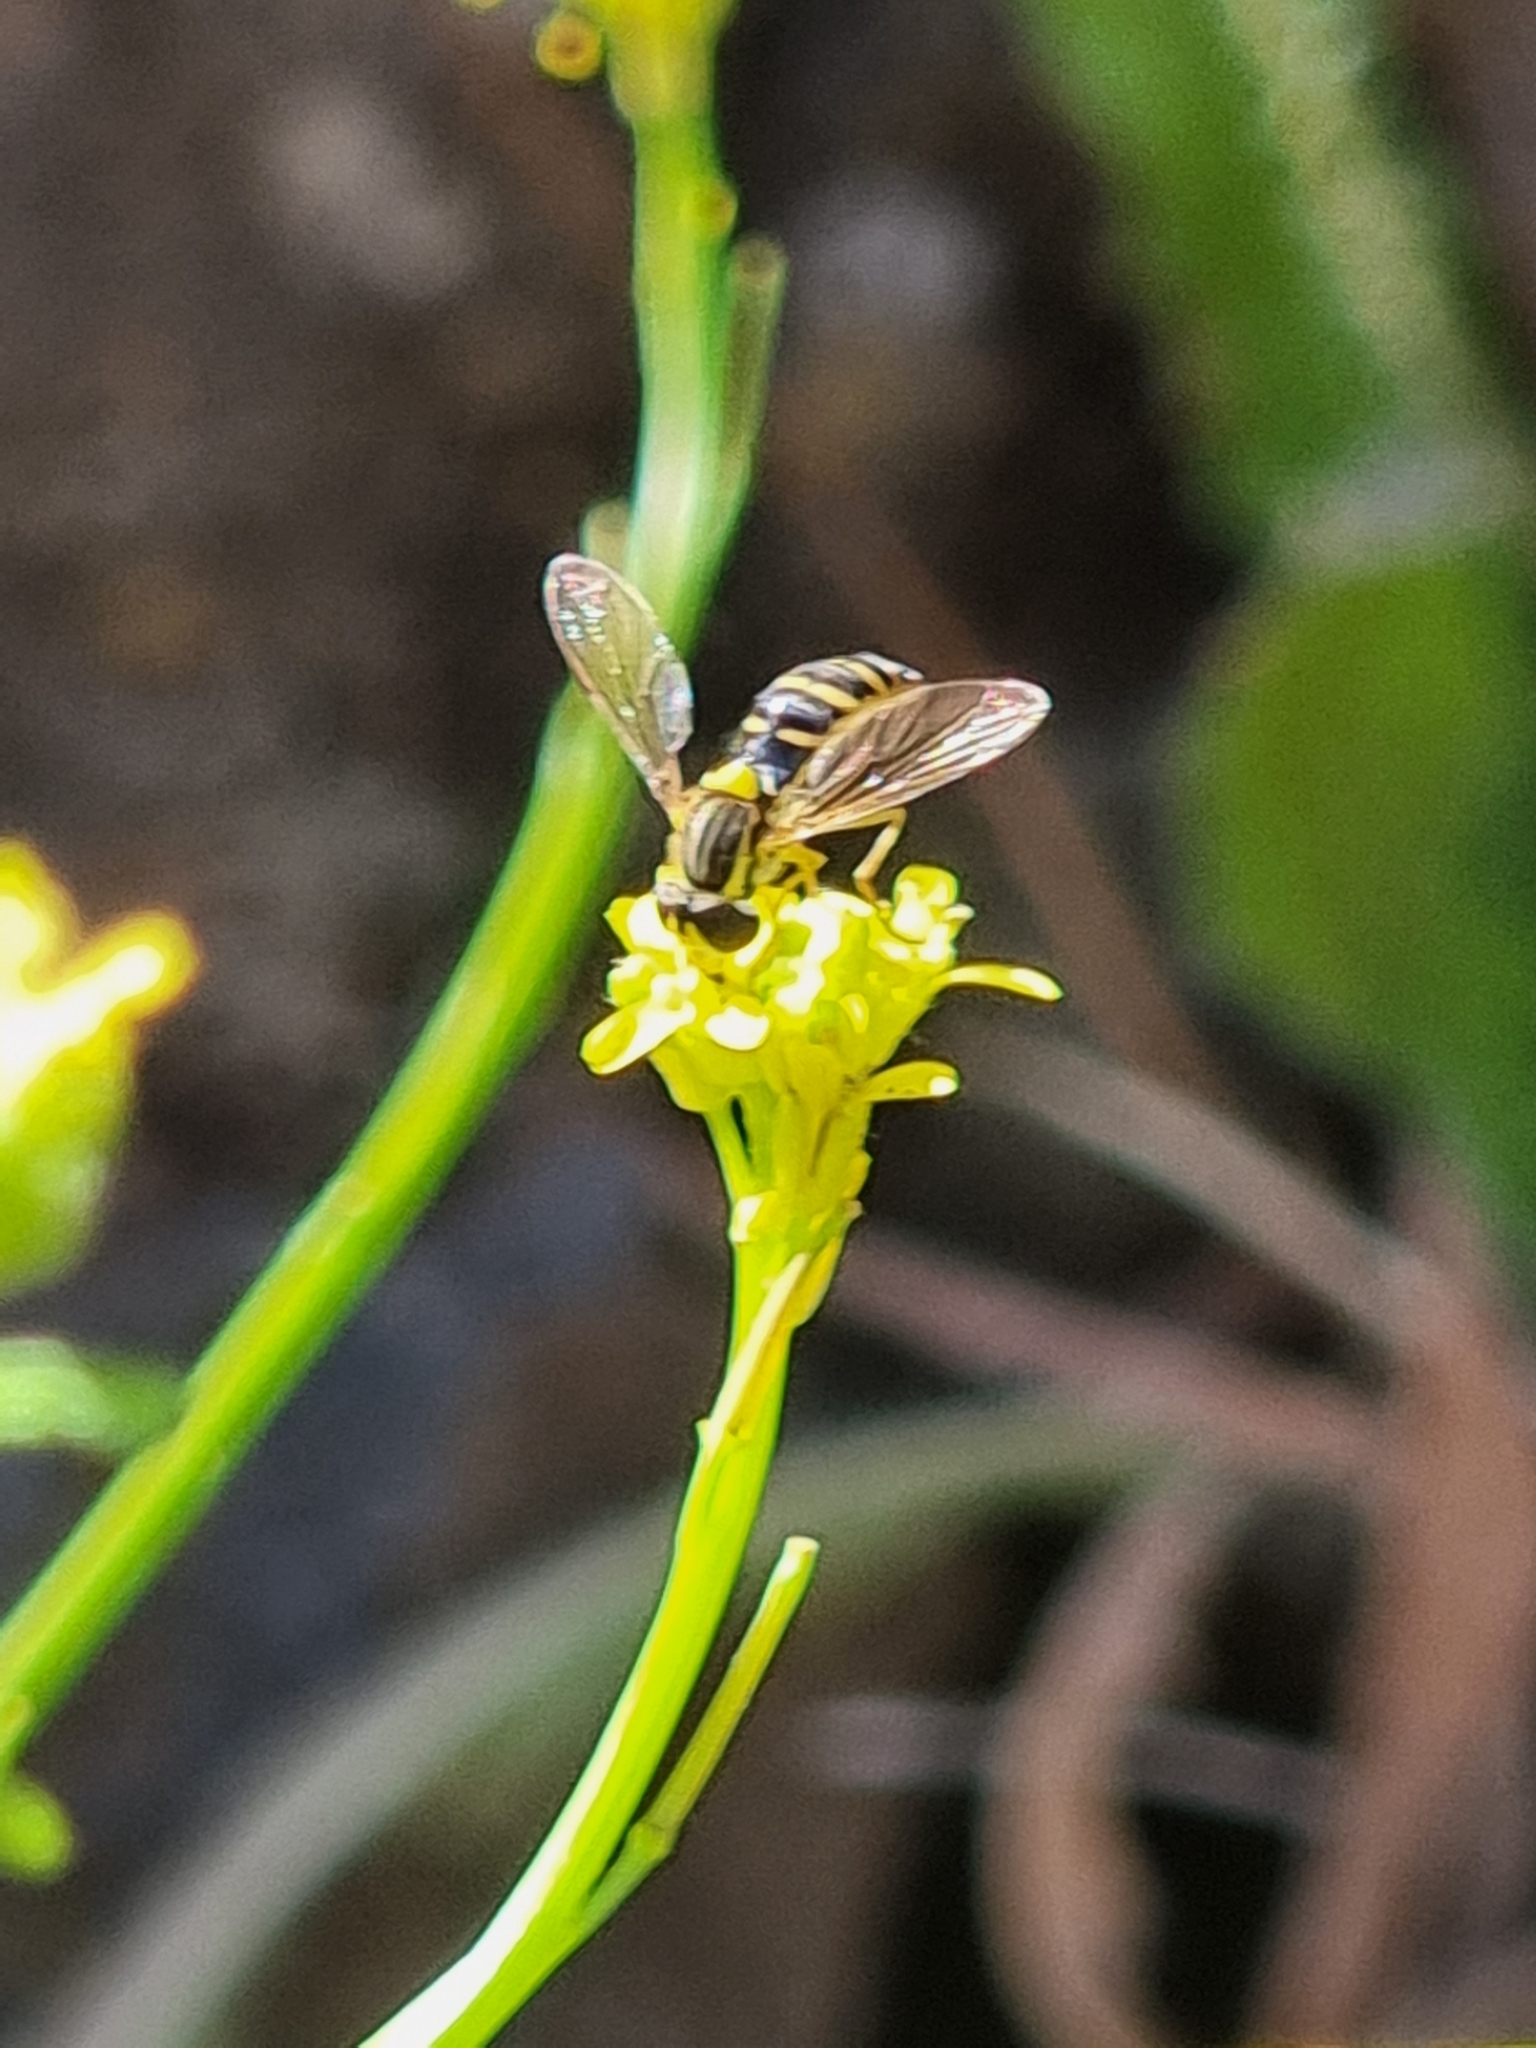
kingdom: Animalia
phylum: Arthropoda
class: Insecta
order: Diptera
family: Syrphidae
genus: Sphaerophoria
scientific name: Sphaerophoria scripta
